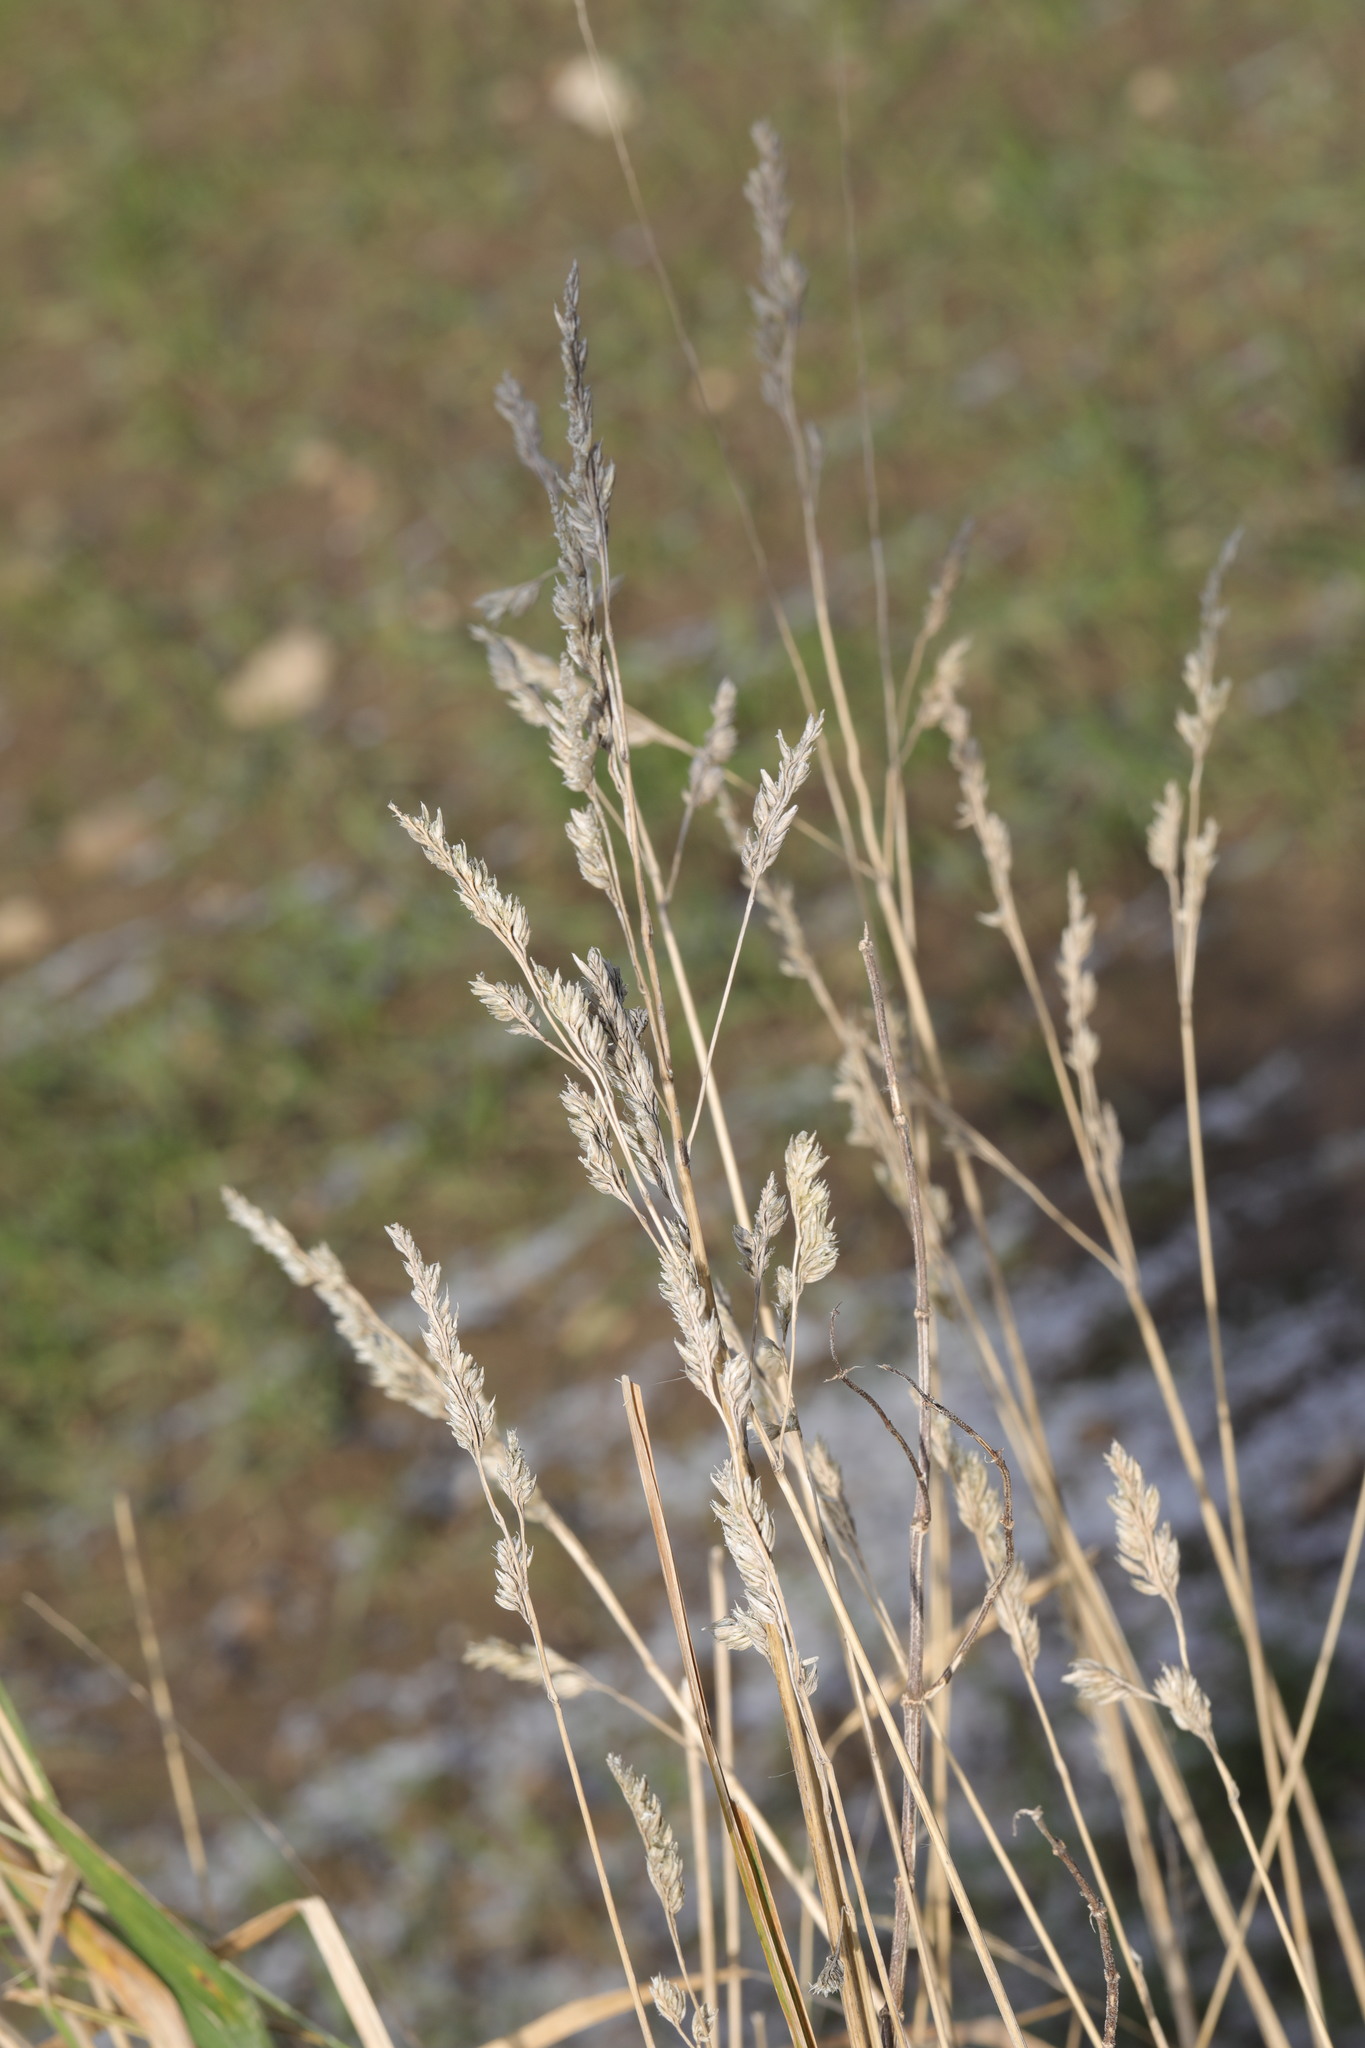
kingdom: Plantae
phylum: Tracheophyta
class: Liliopsida
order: Poales
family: Poaceae
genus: Dactylis
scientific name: Dactylis glomerata
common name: Orchardgrass
